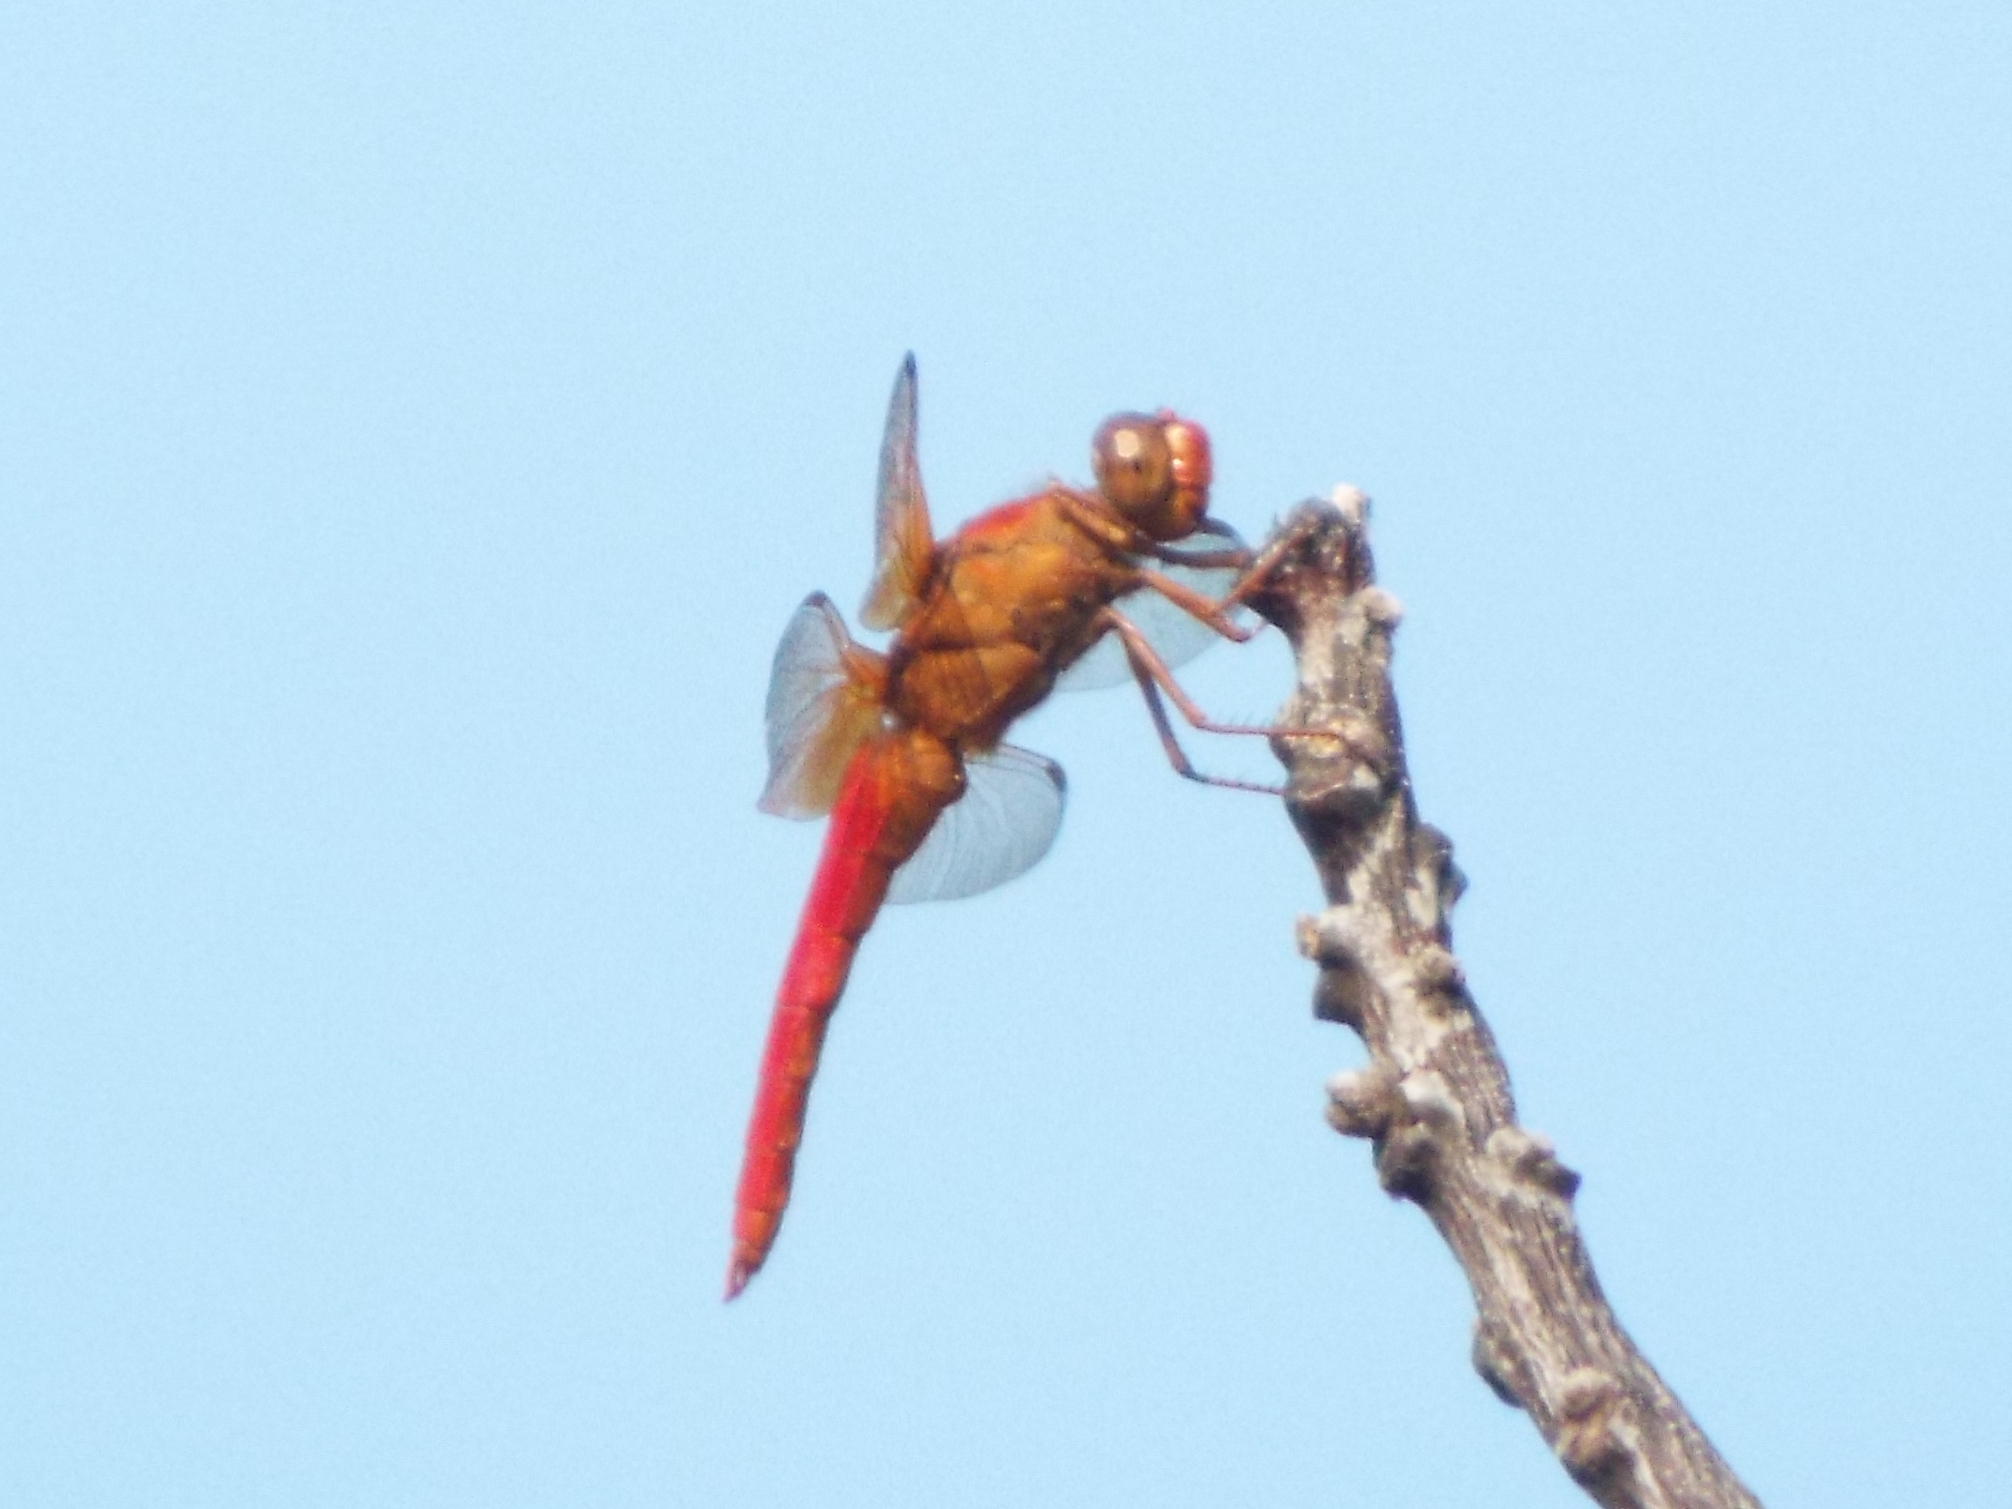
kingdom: Animalia
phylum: Arthropoda
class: Insecta
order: Odonata
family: Libellulidae
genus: Libellula
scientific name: Libellula croceipennis
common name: Neon skimmer
